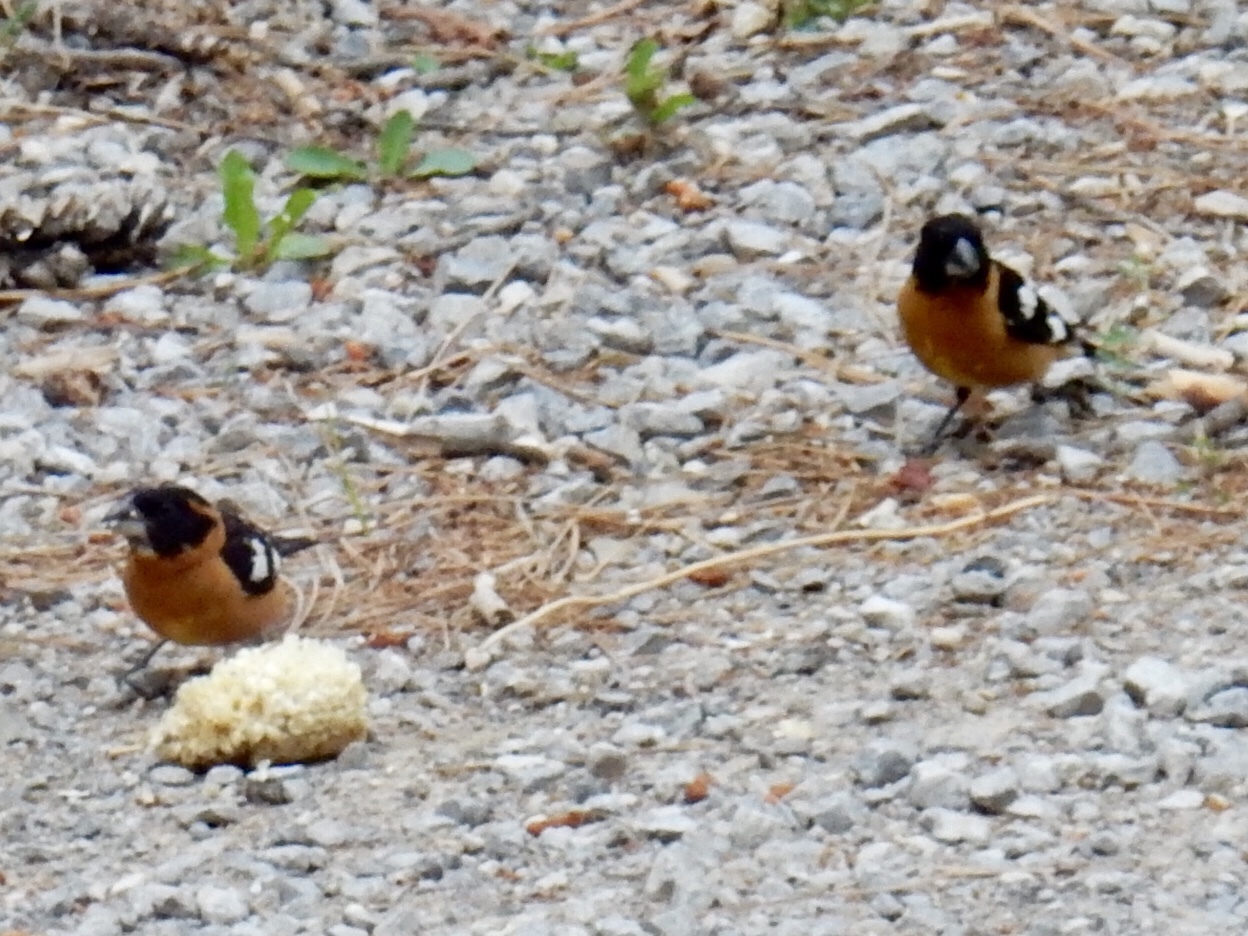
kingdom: Animalia
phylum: Chordata
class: Aves
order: Passeriformes
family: Cardinalidae
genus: Pheucticus
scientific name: Pheucticus melanocephalus
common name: Black-headed grosbeak
